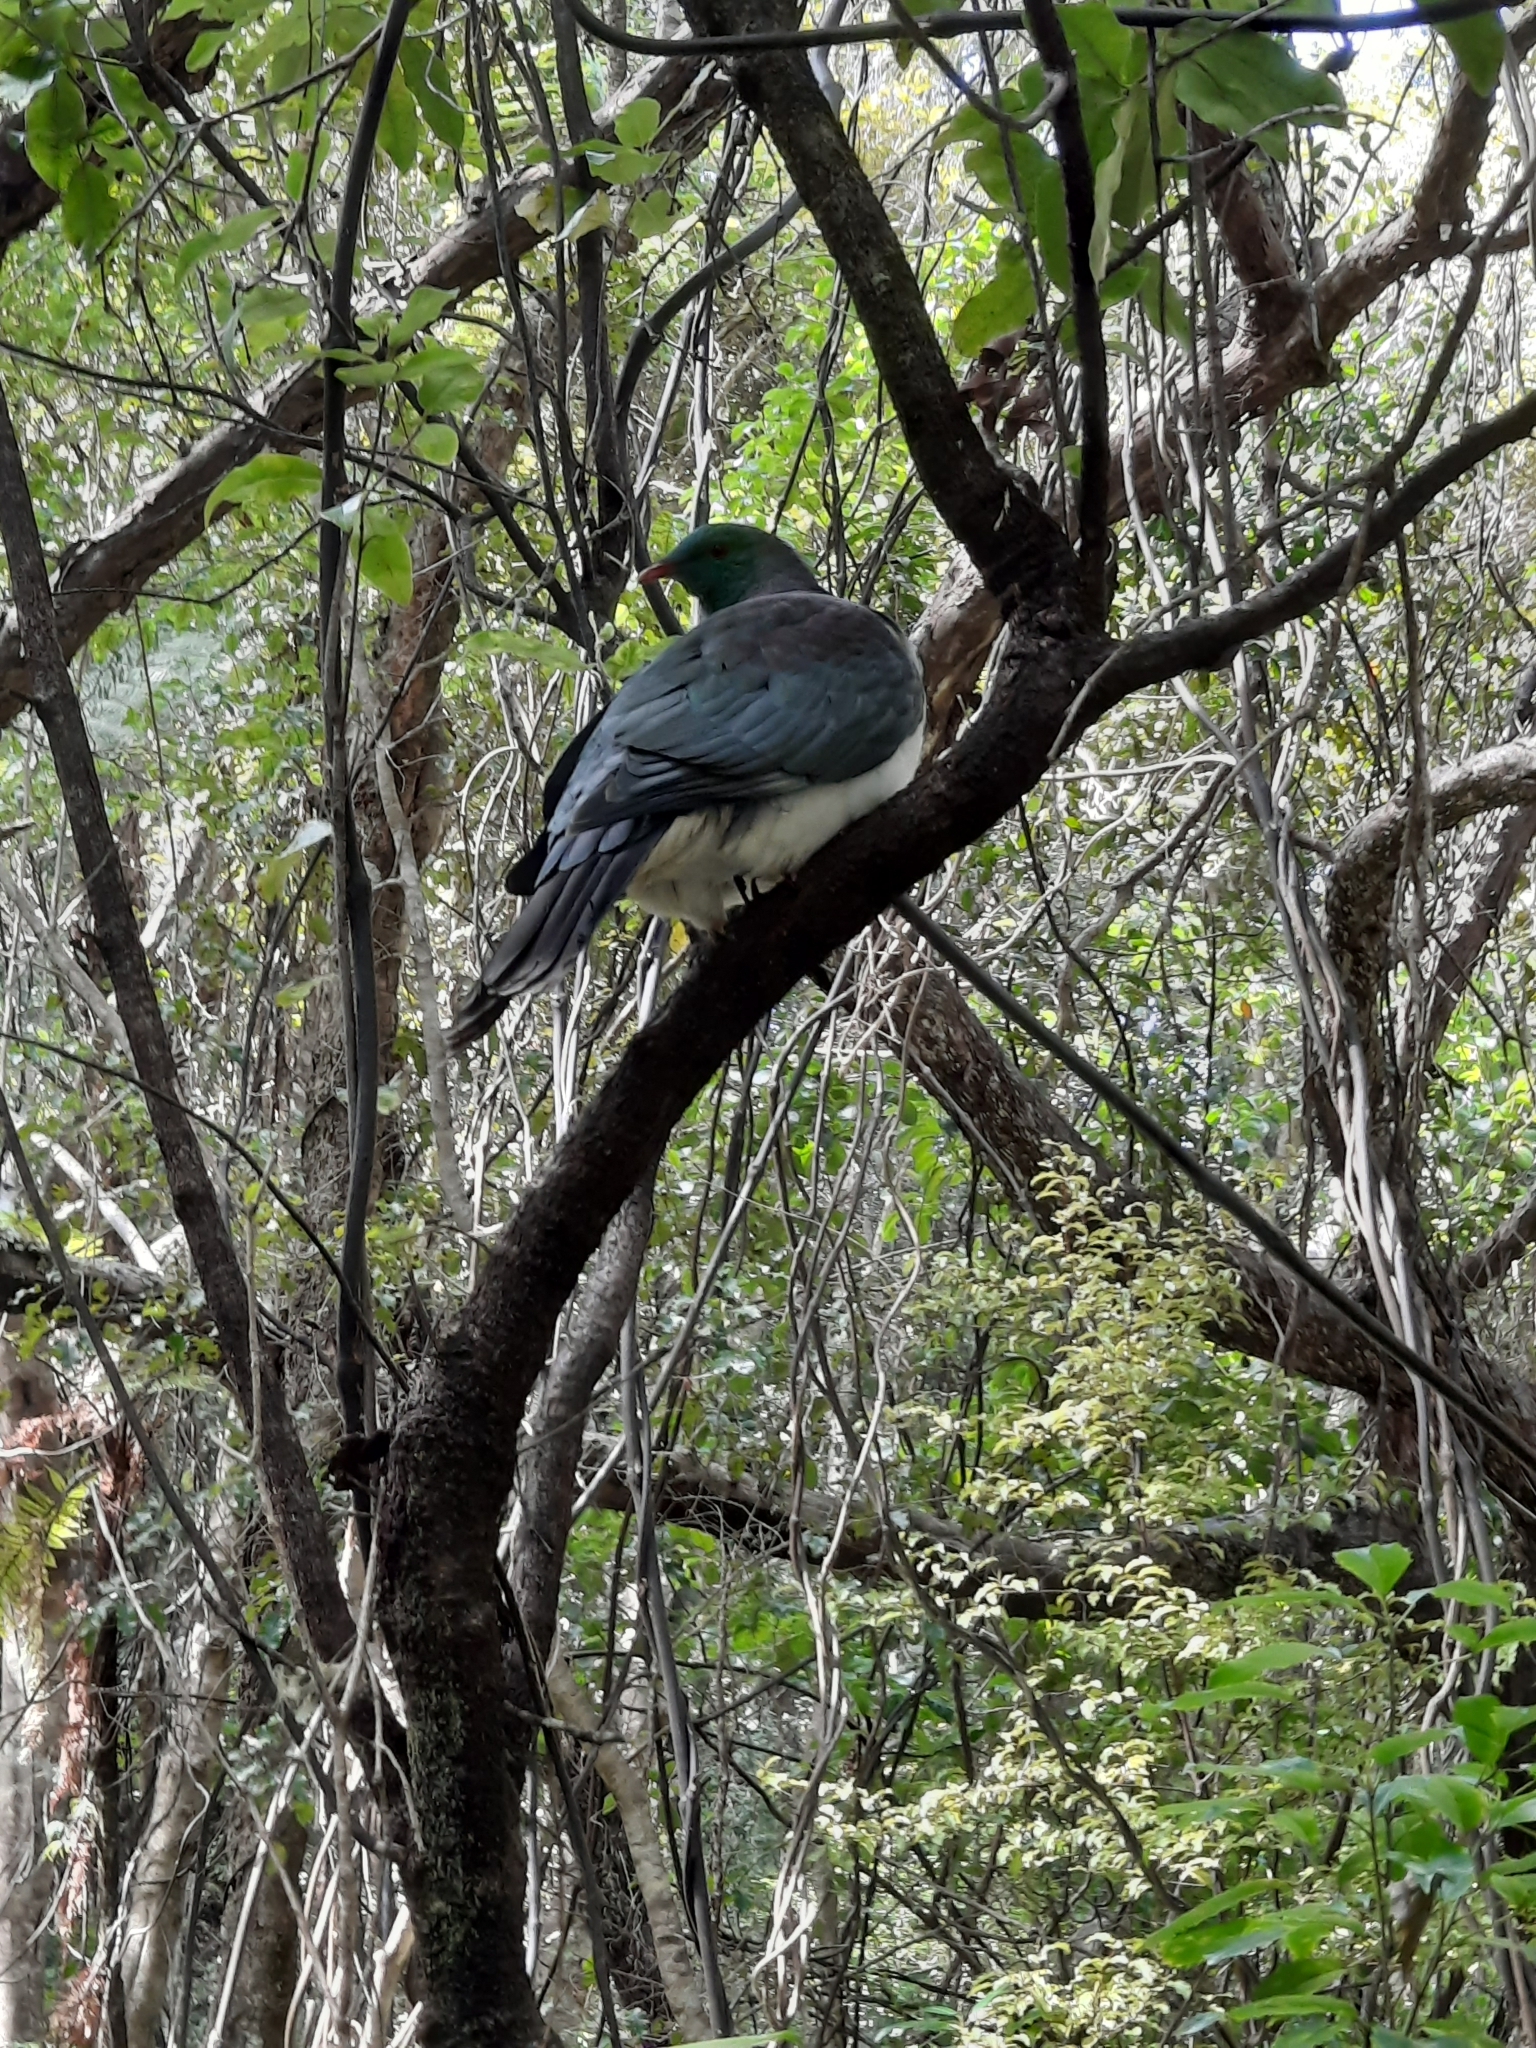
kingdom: Animalia
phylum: Chordata
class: Aves
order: Columbiformes
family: Columbidae
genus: Hemiphaga
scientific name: Hemiphaga novaeseelandiae
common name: New zealand pigeon
